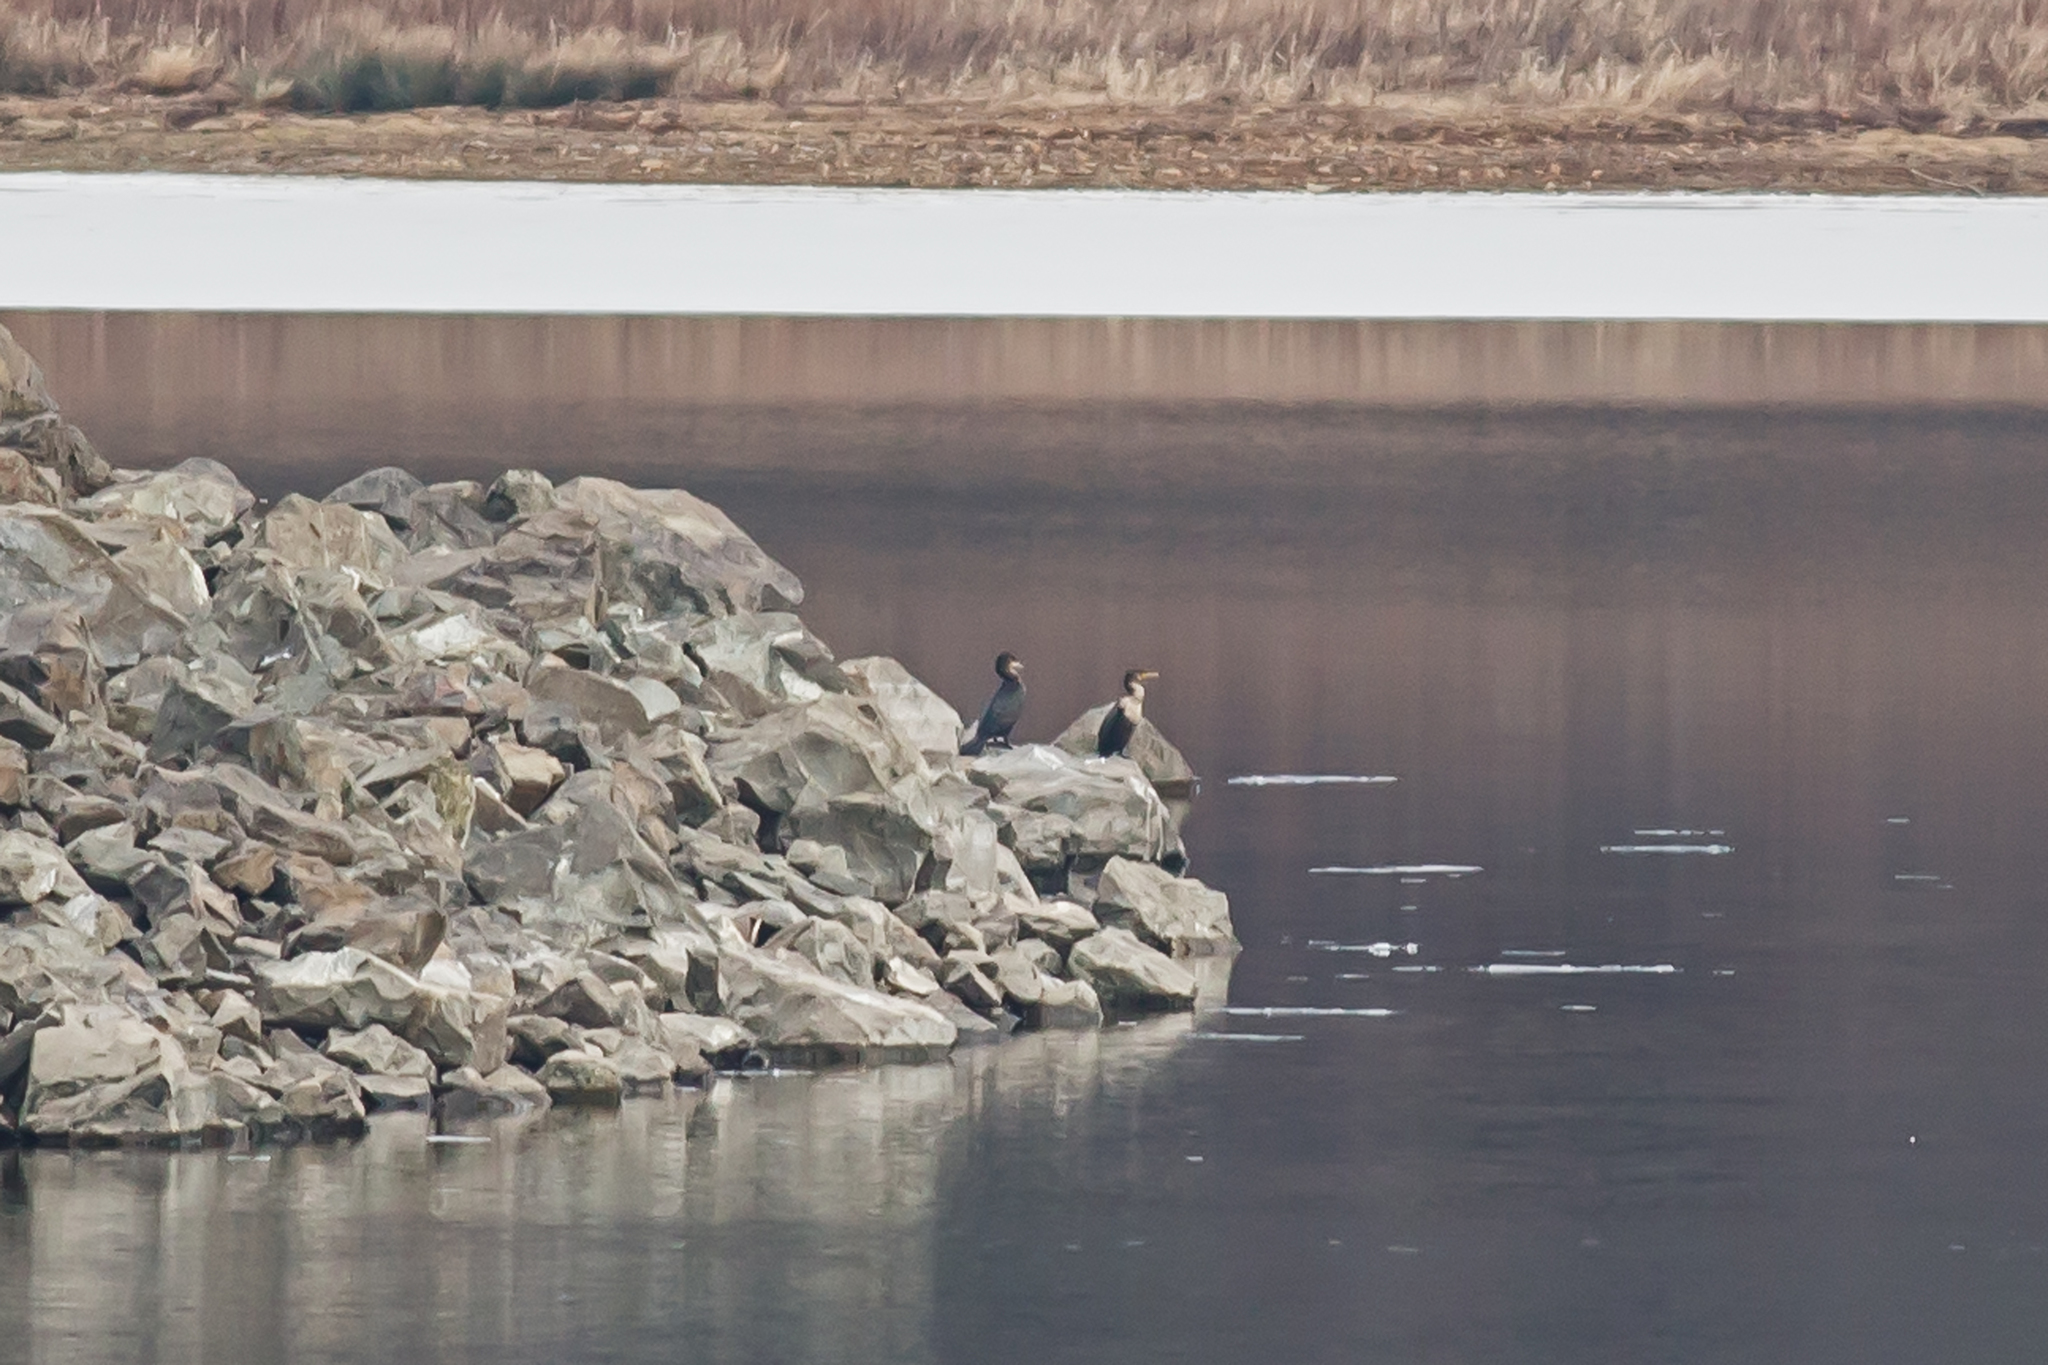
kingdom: Animalia
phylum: Chordata
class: Aves
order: Suliformes
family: Phalacrocoracidae
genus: Phalacrocorax
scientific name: Phalacrocorax auritus
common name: Double-crested cormorant
